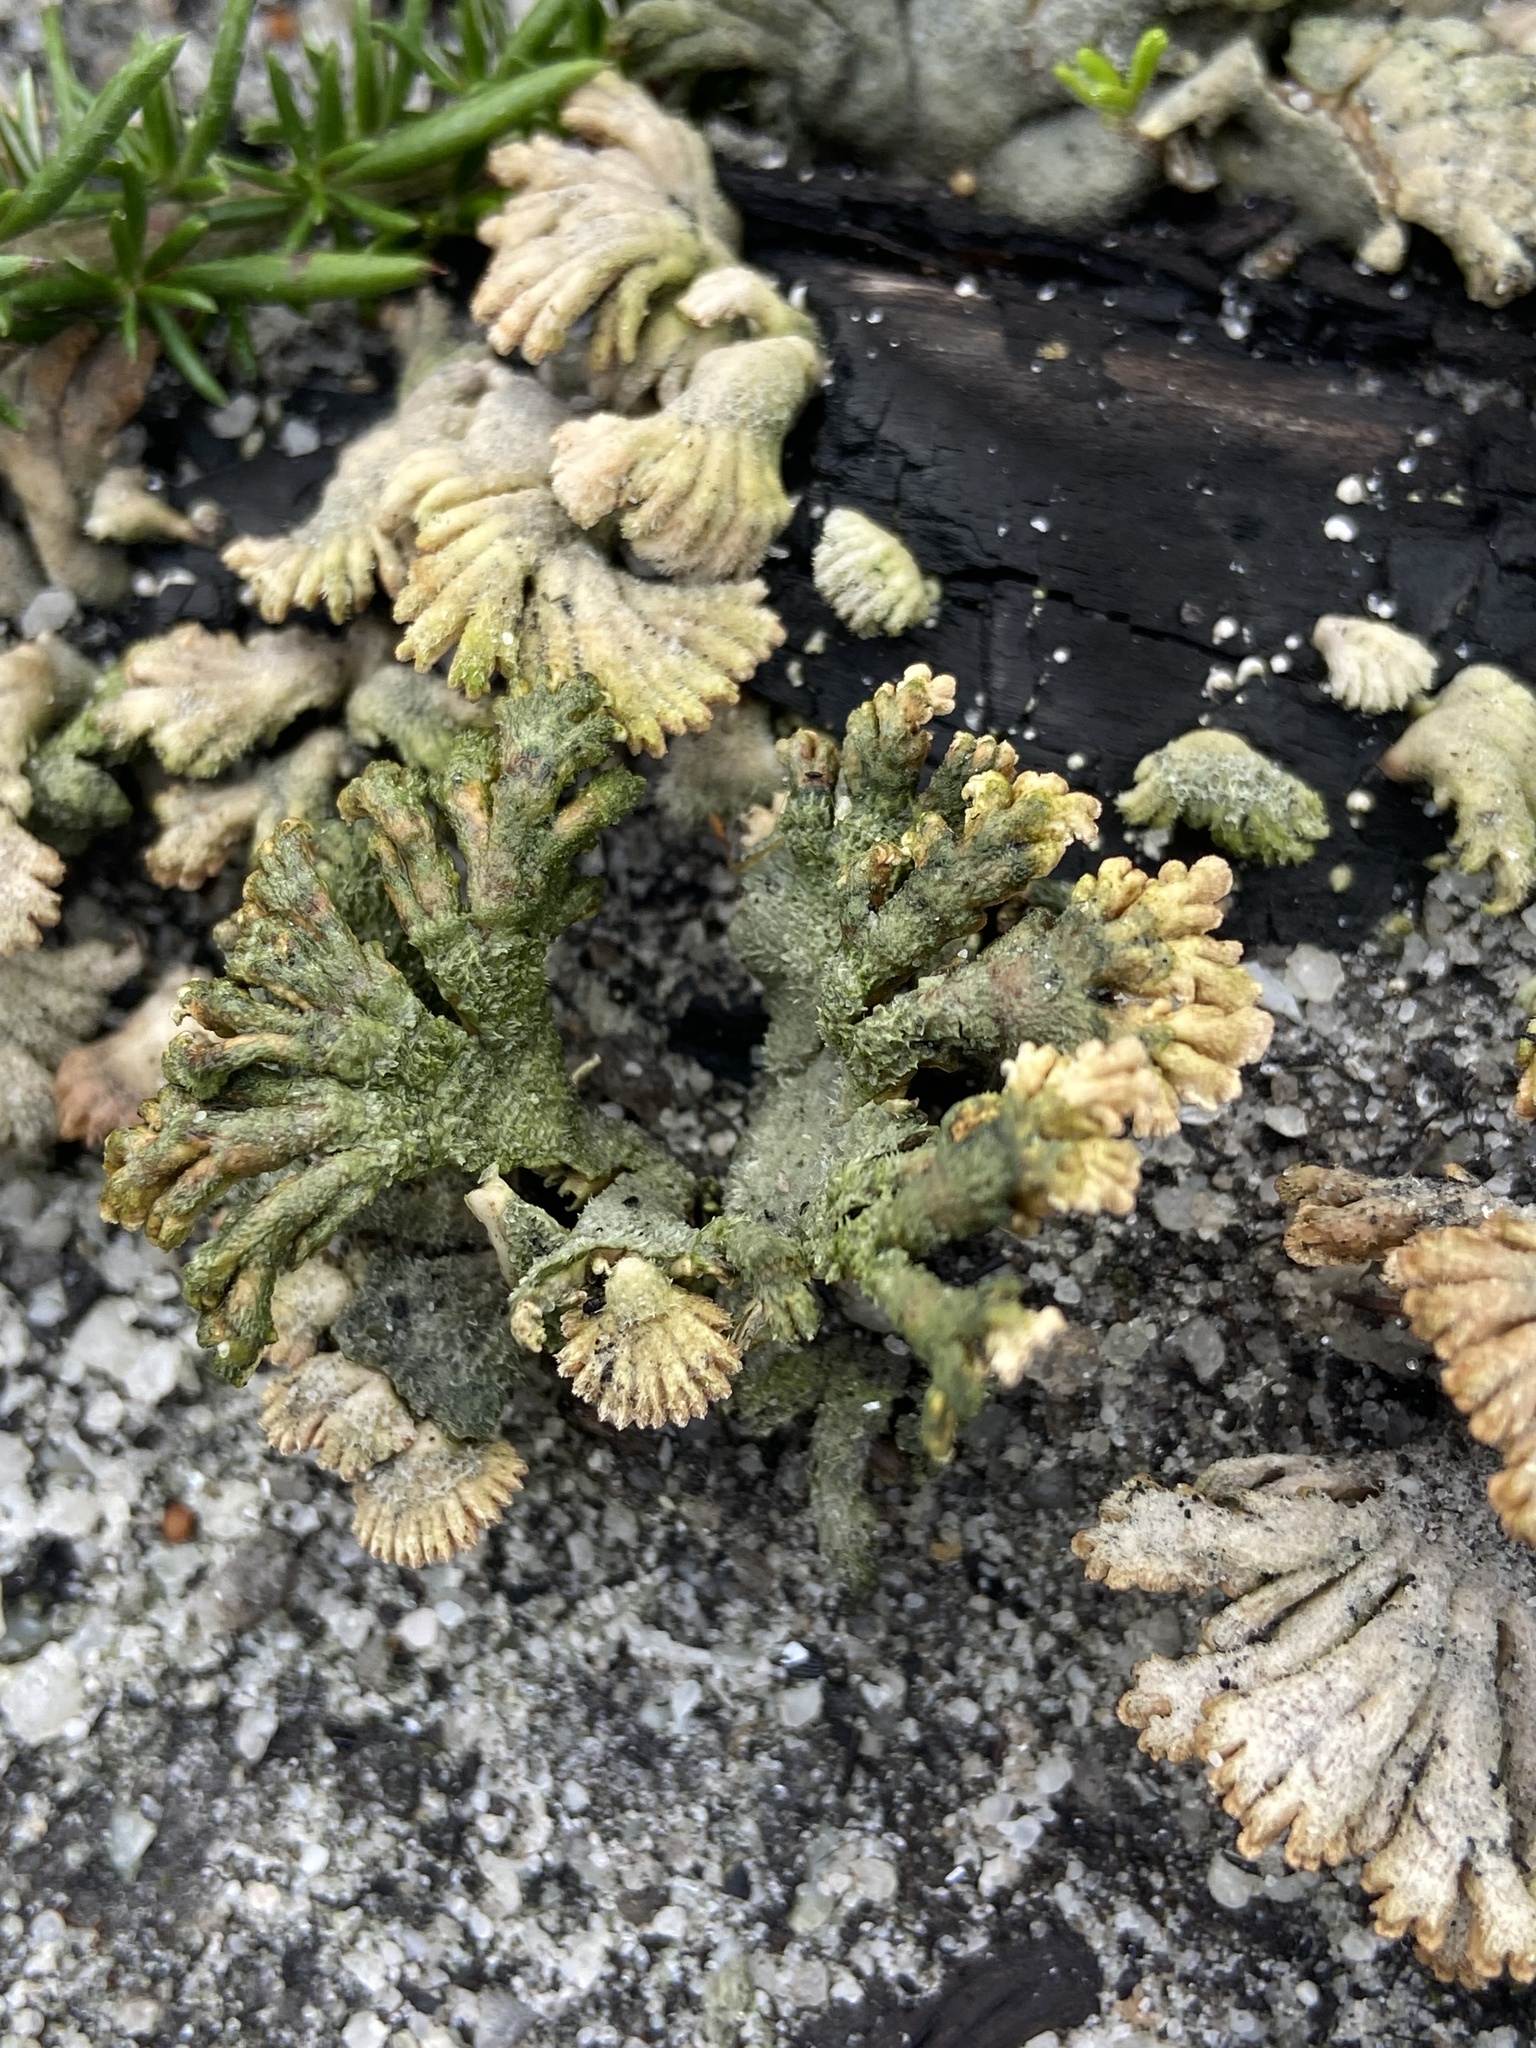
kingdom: Fungi
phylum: Basidiomycota
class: Agaricomycetes
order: Agaricales
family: Schizophyllaceae
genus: Schizophyllum
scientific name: Schizophyllum commune
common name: Common porecrust
